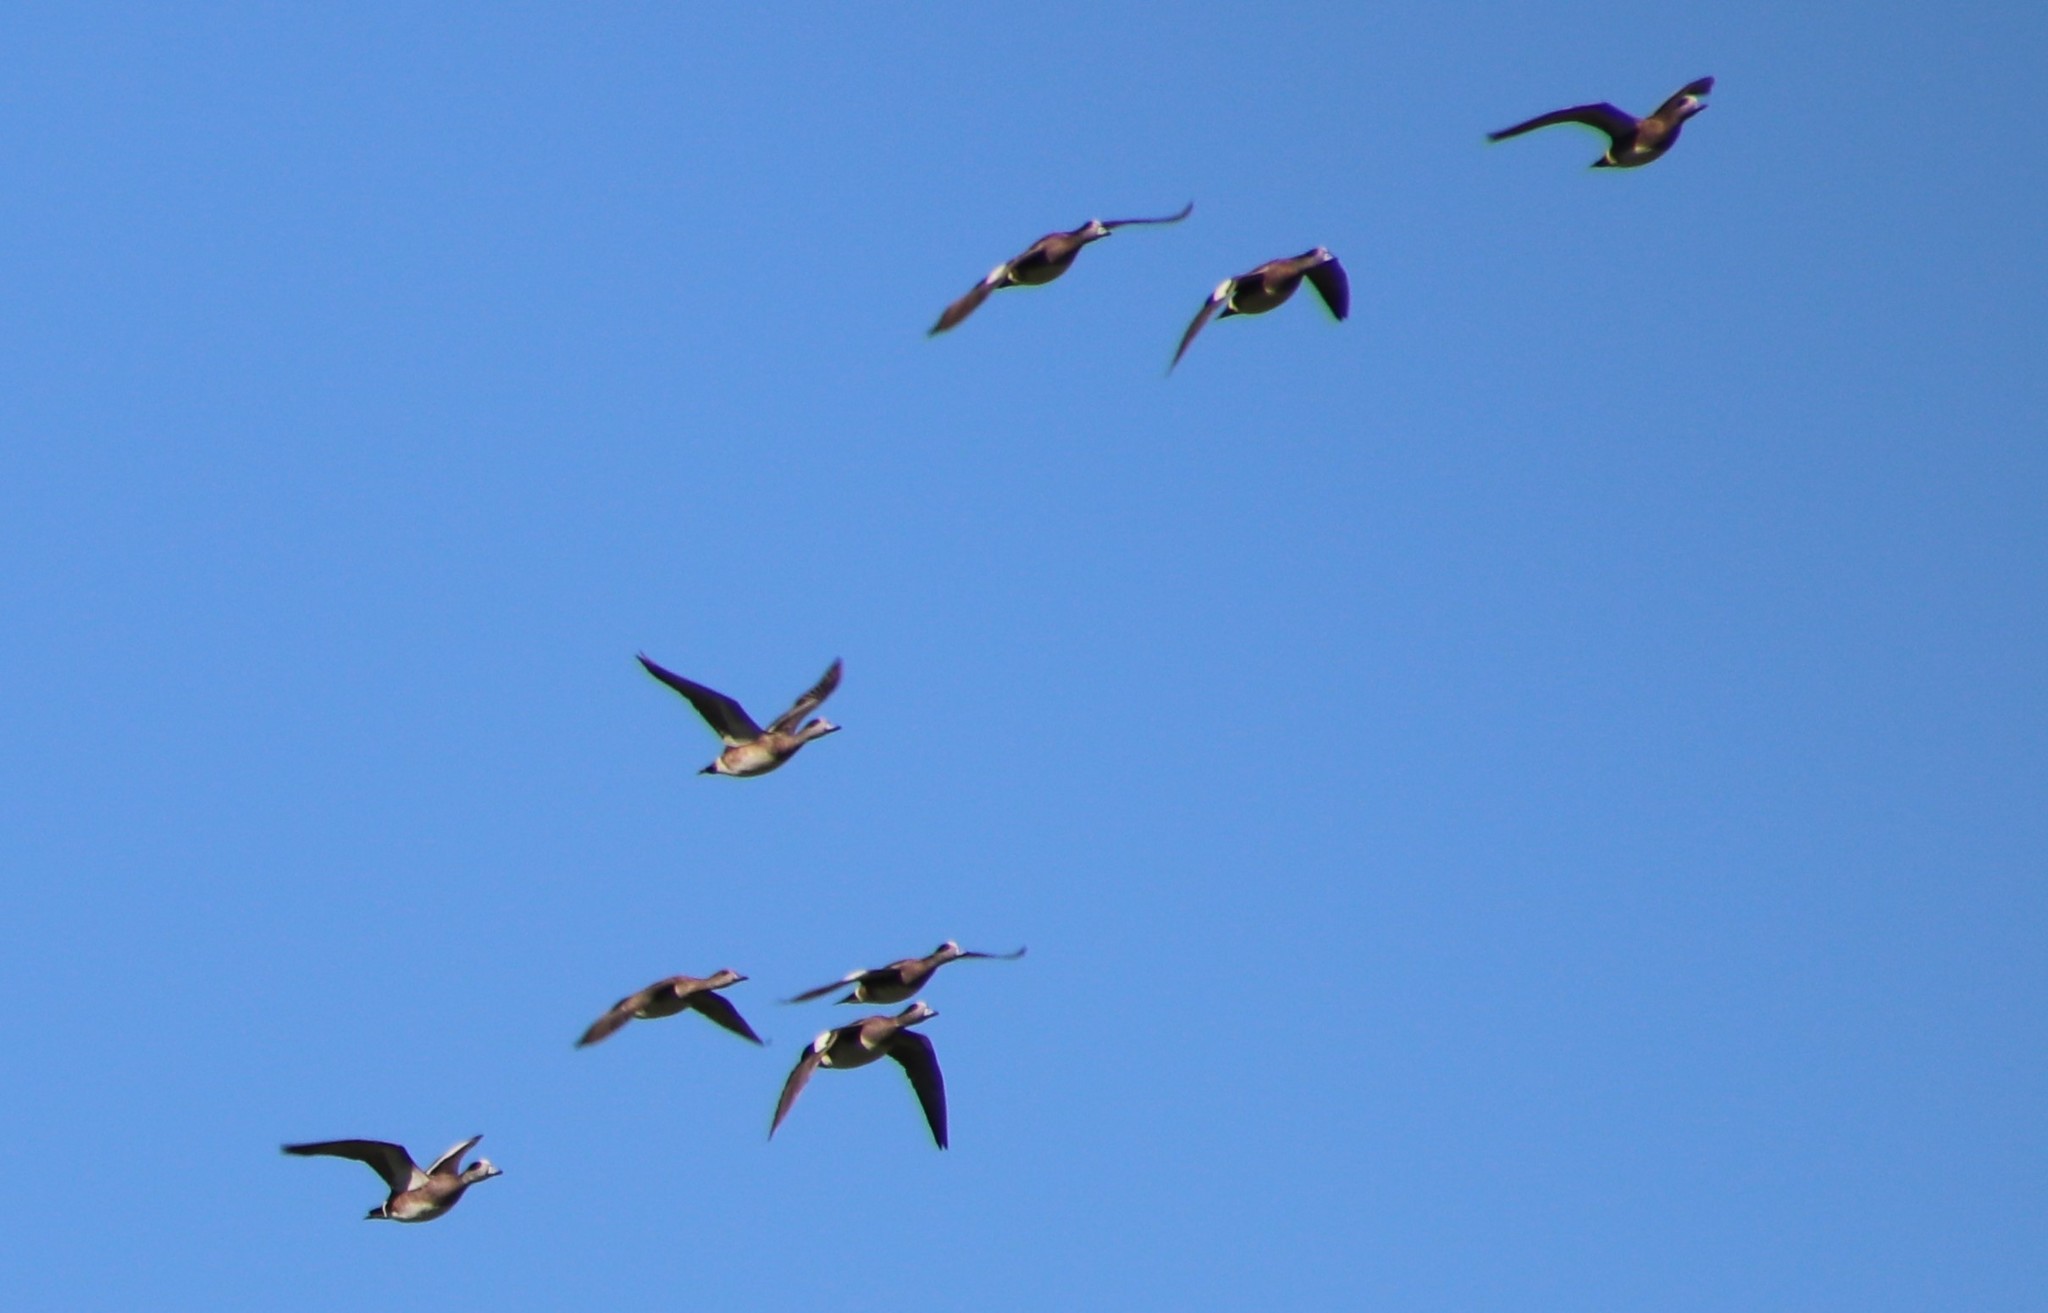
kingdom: Animalia
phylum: Chordata
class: Aves
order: Anseriformes
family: Anatidae
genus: Mareca
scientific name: Mareca americana
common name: American wigeon
